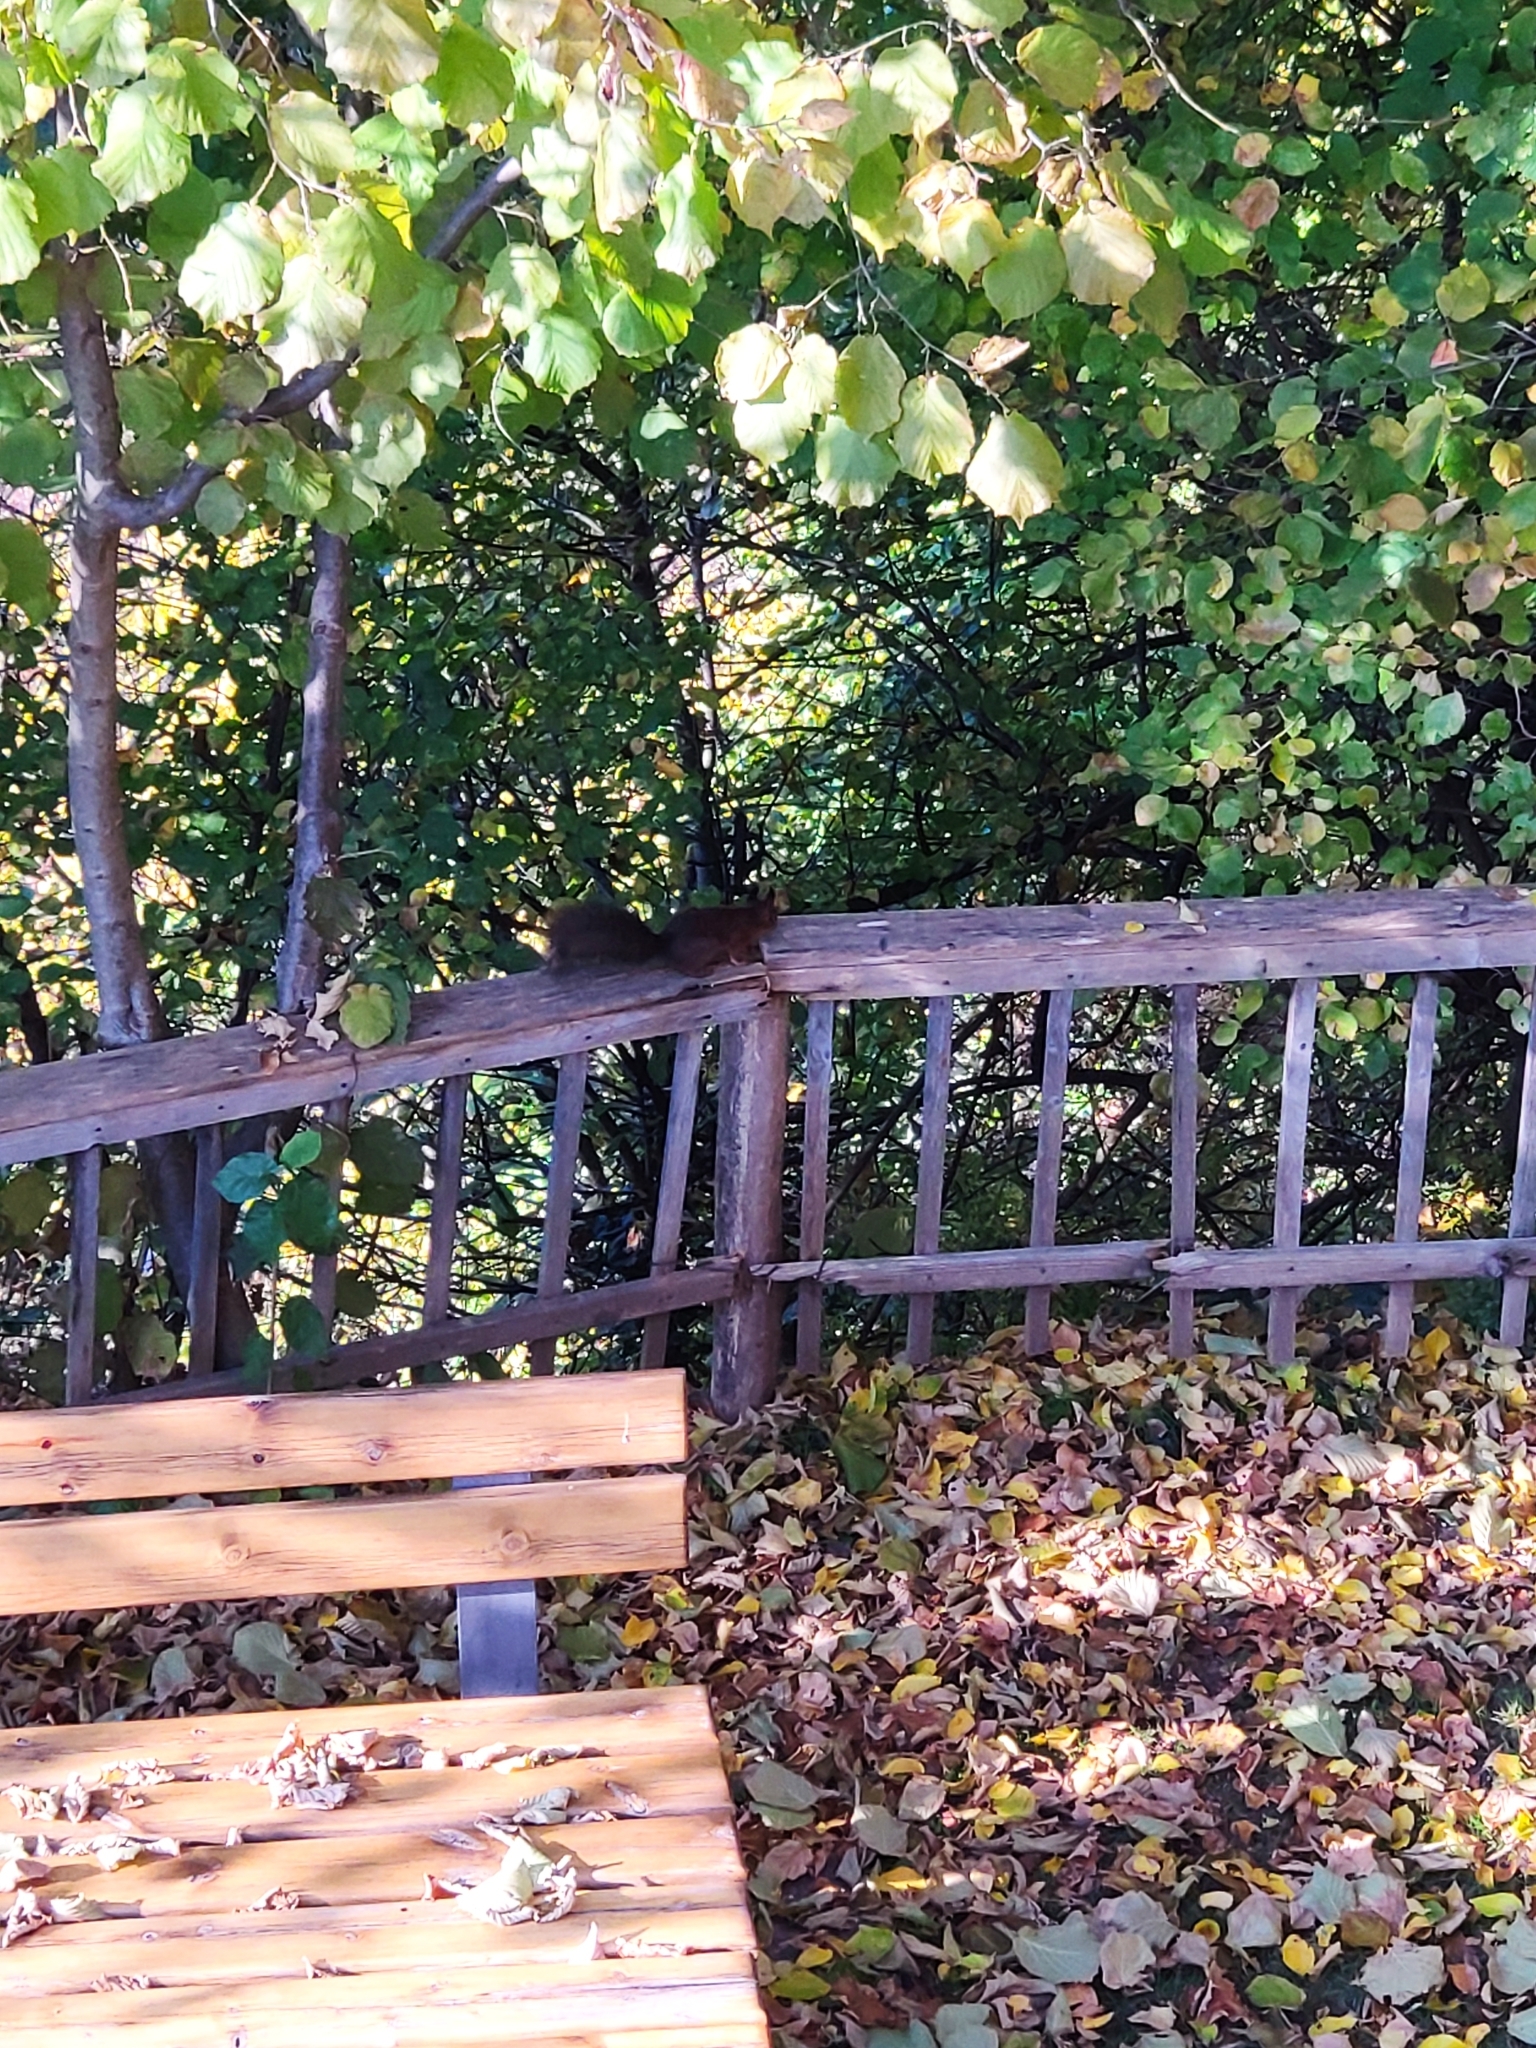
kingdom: Animalia
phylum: Chordata
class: Mammalia
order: Rodentia
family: Sciuridae
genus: Sciurus
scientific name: Sciurus vulgaris
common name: Eurasian red squirrel
